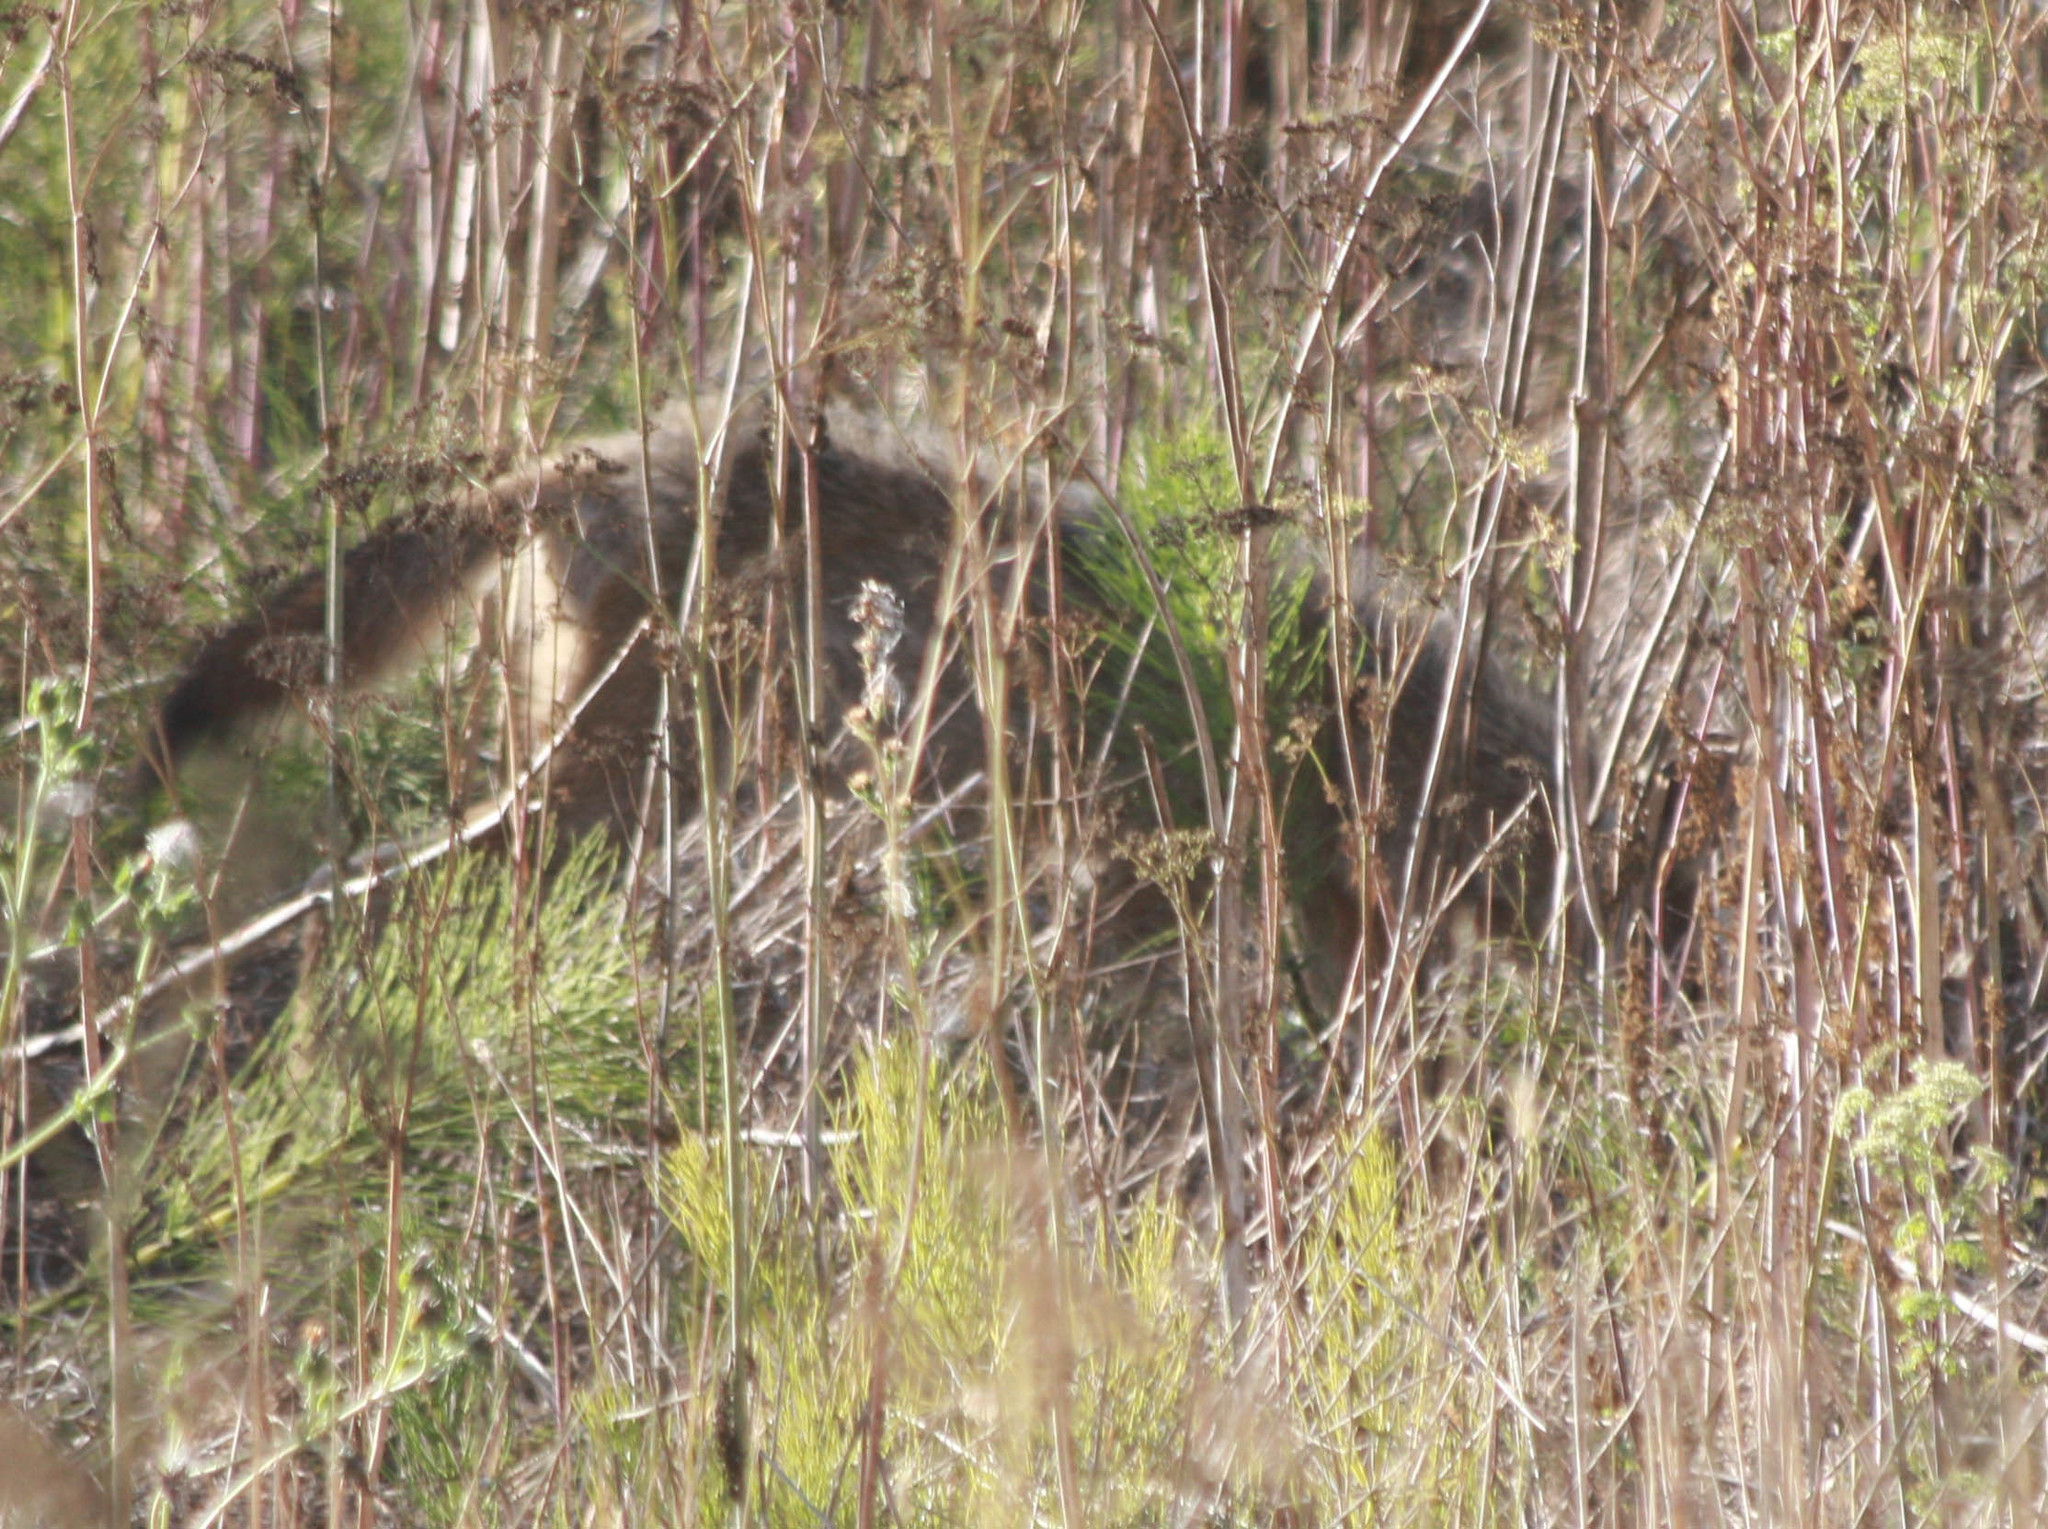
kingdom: Animalia
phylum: Chordata
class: Mammalia
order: Carnivora
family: Canidae
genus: Canis
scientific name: Canis latrans
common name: Coyote
